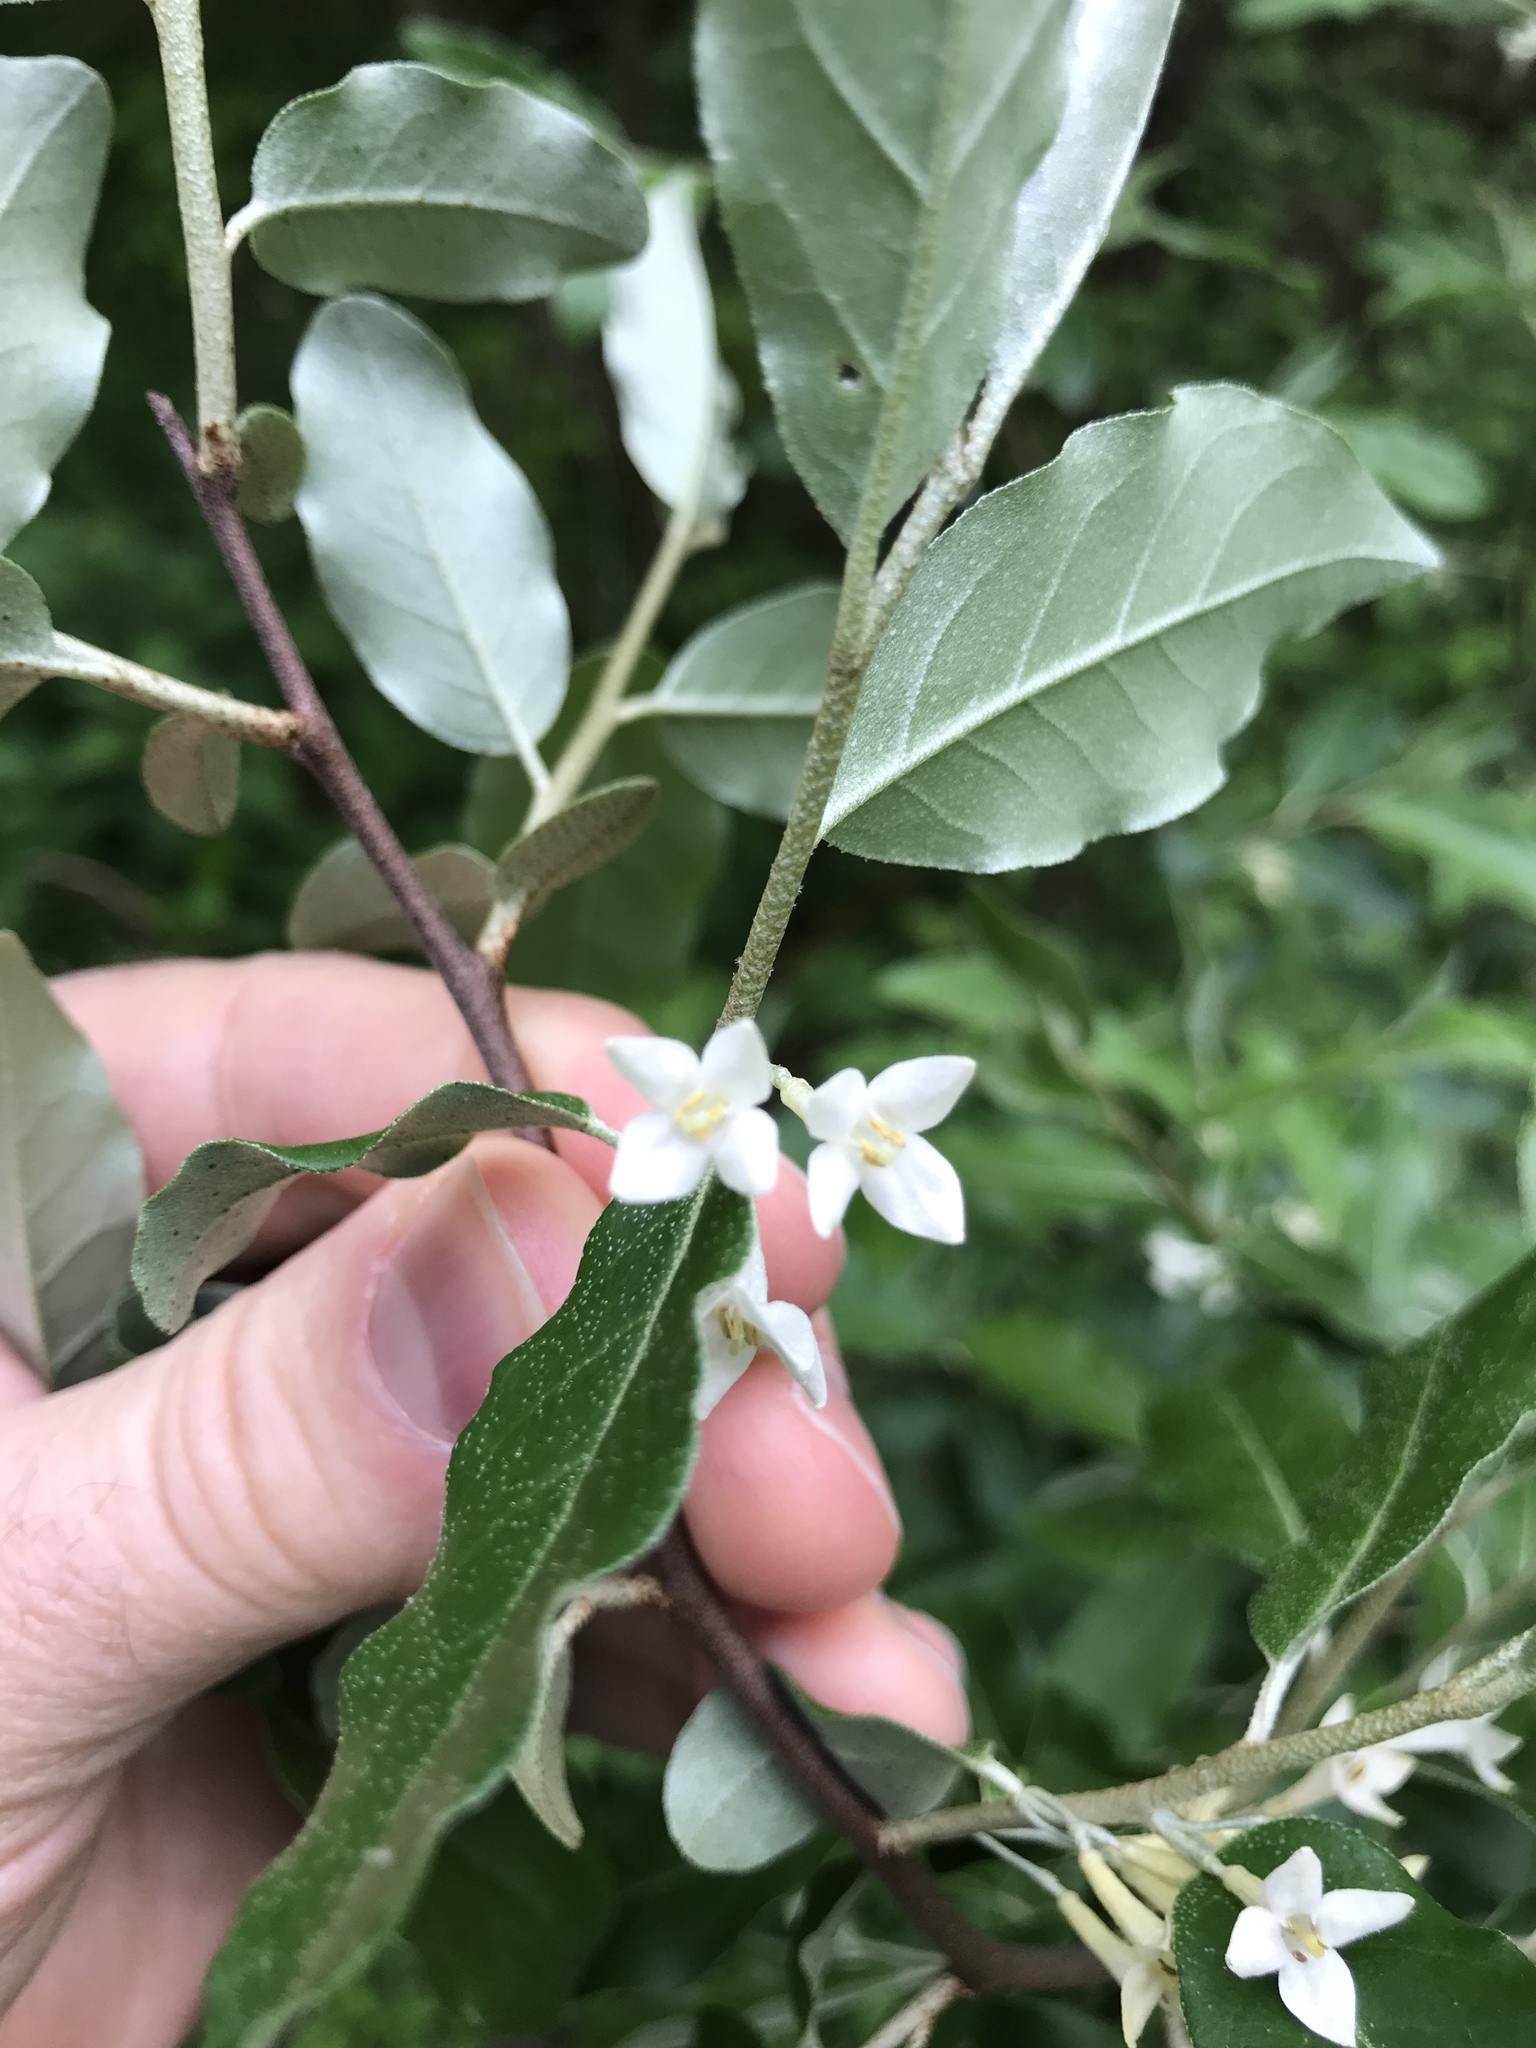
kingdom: Plantae
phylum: Tracheophyta
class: Magnoliopsida
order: Rosales
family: Elaeagnaceae
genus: Elaeagnus
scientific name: Elaeagnus umbellata
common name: Autumn olive
